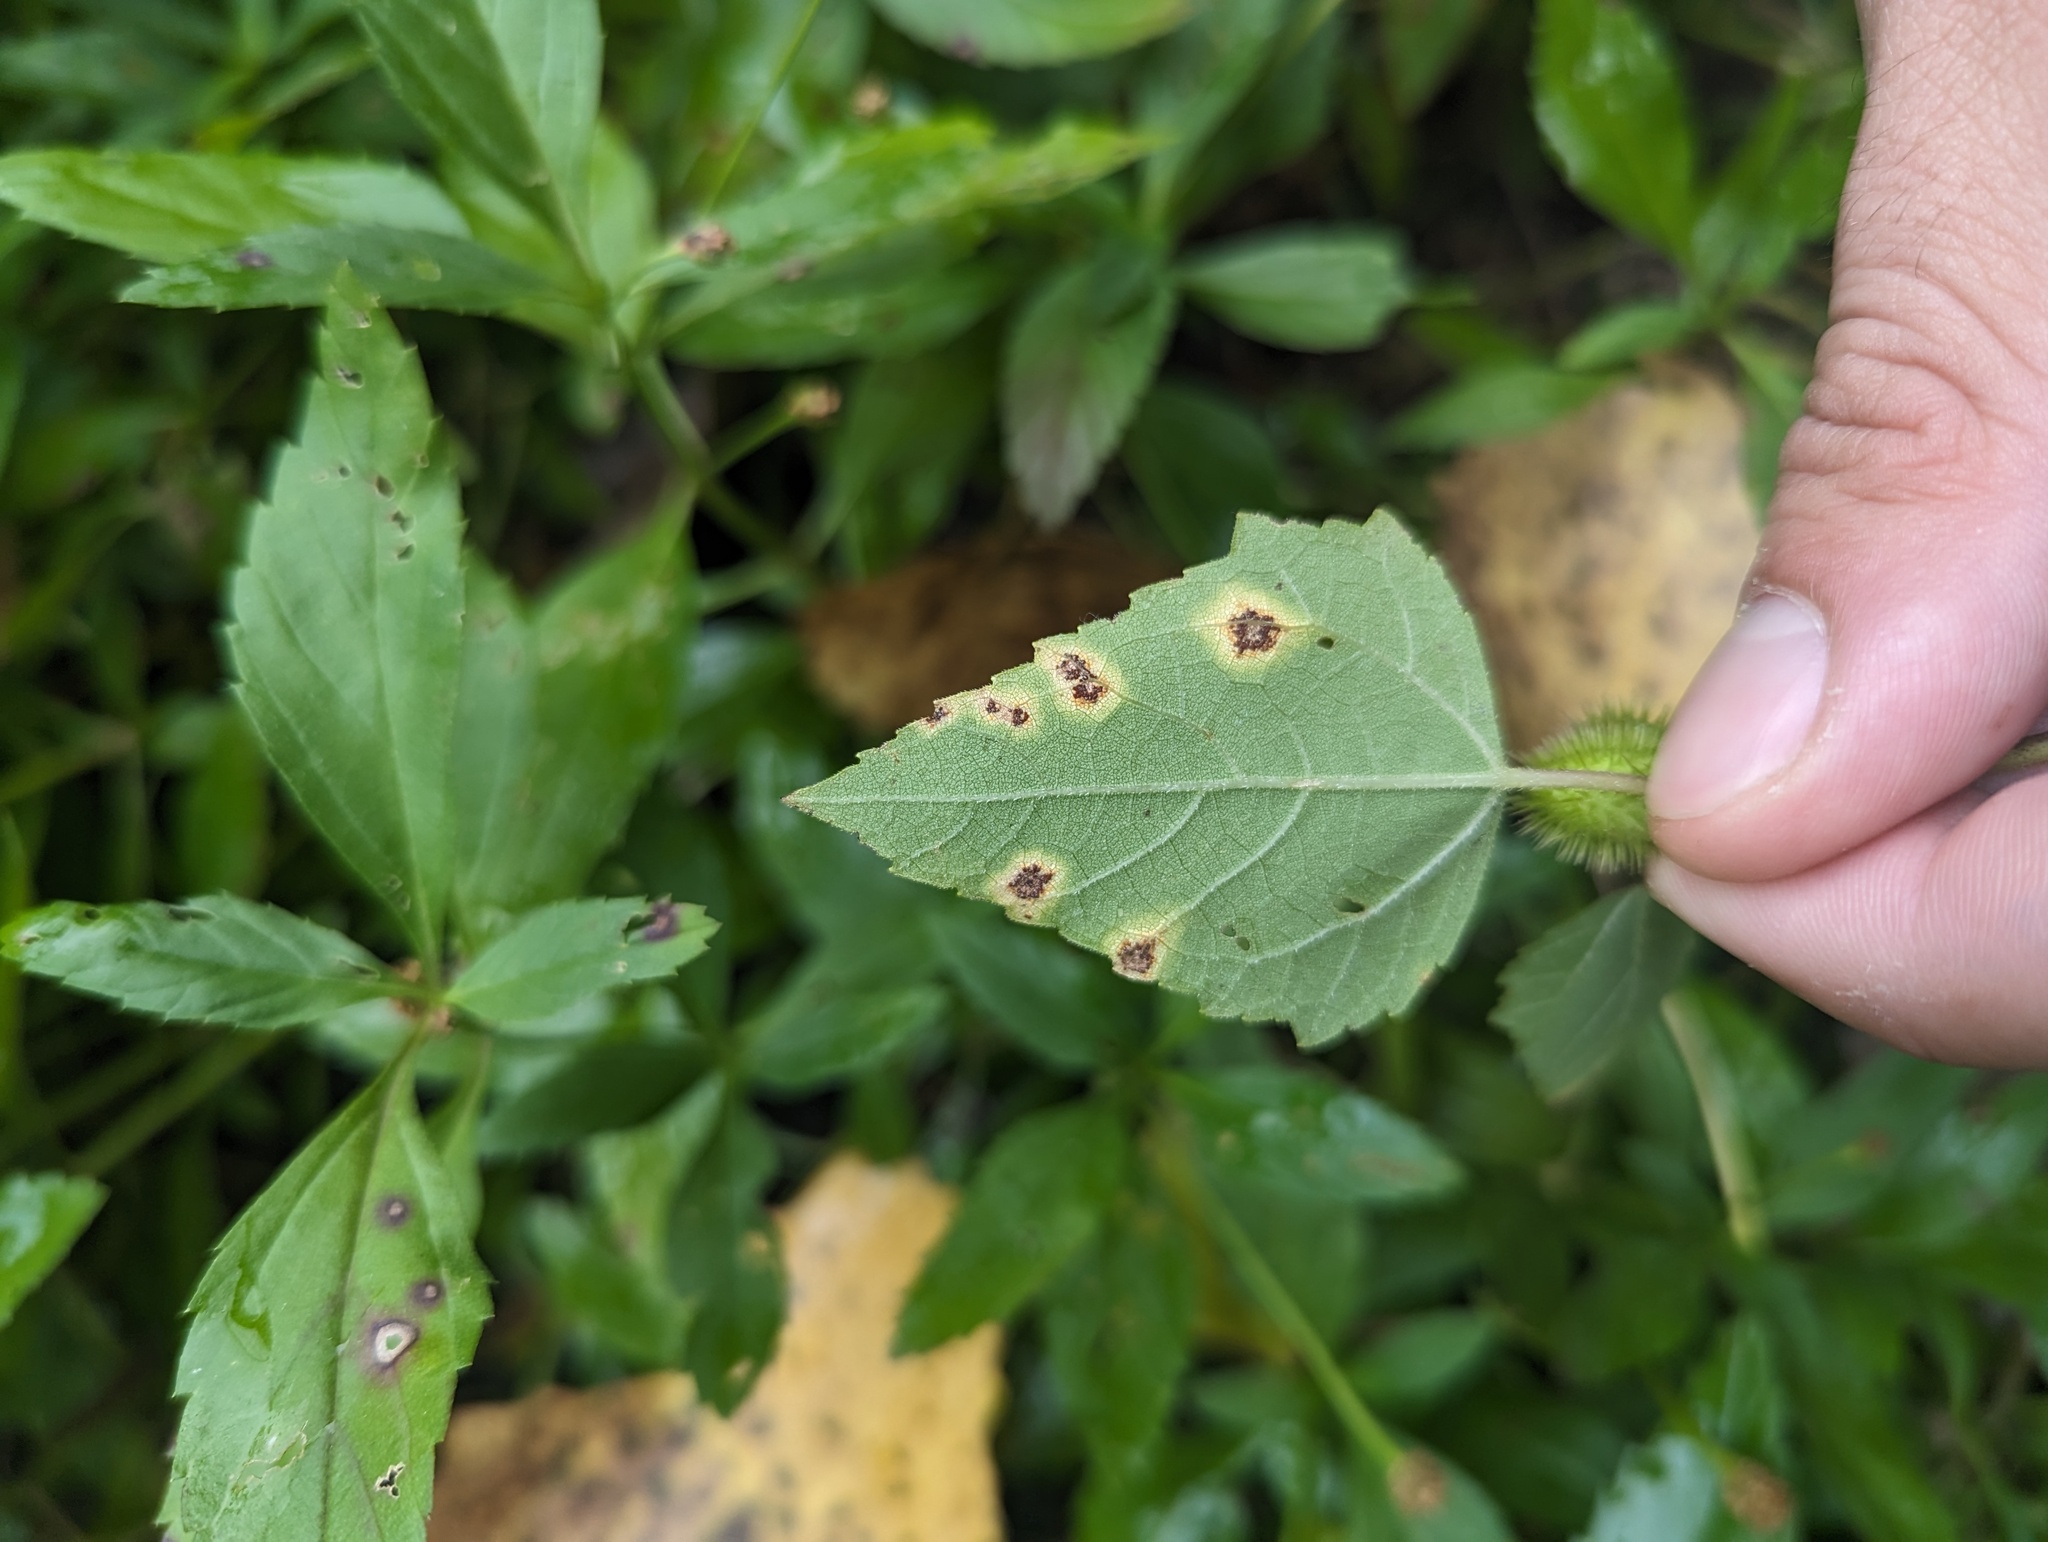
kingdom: Fungi
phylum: Basidiomycota
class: Pucciniomycetes
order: Pucciniales
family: Pucciniaceae
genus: Puccinia
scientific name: Puccinia xanthii
